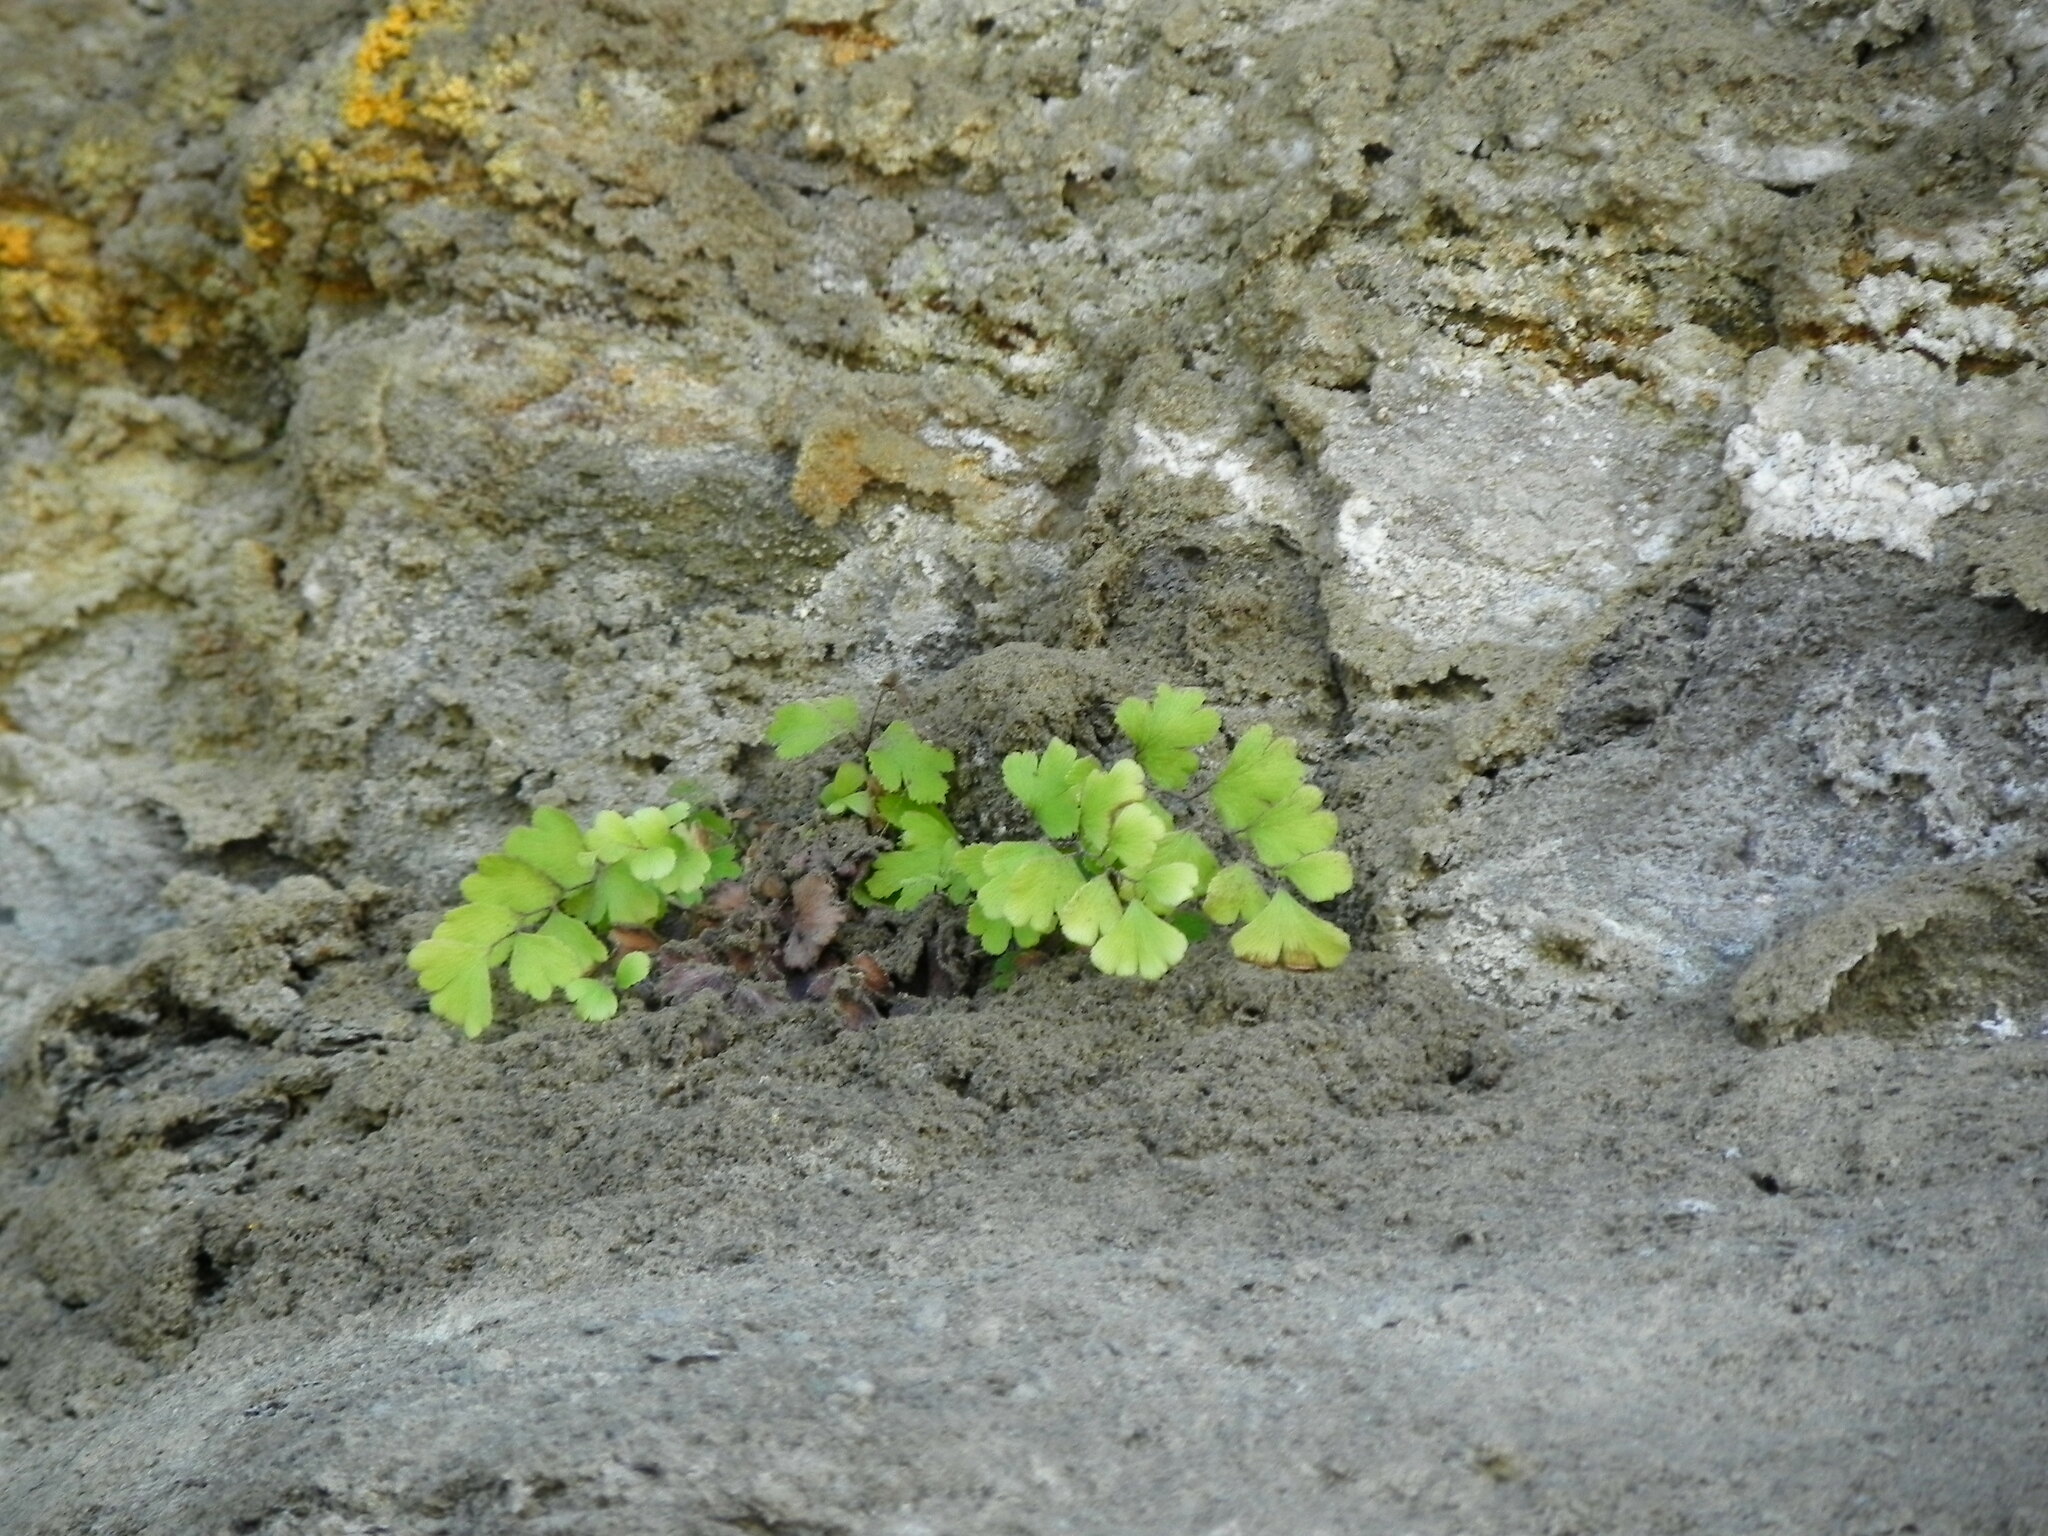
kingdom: Plantae
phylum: Tracheophyta
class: Polypodiopsida
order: Polypodiales
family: Pteridaceae
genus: Adiantum
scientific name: Adiantum capillus-veneris
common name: Maidenhair fern
